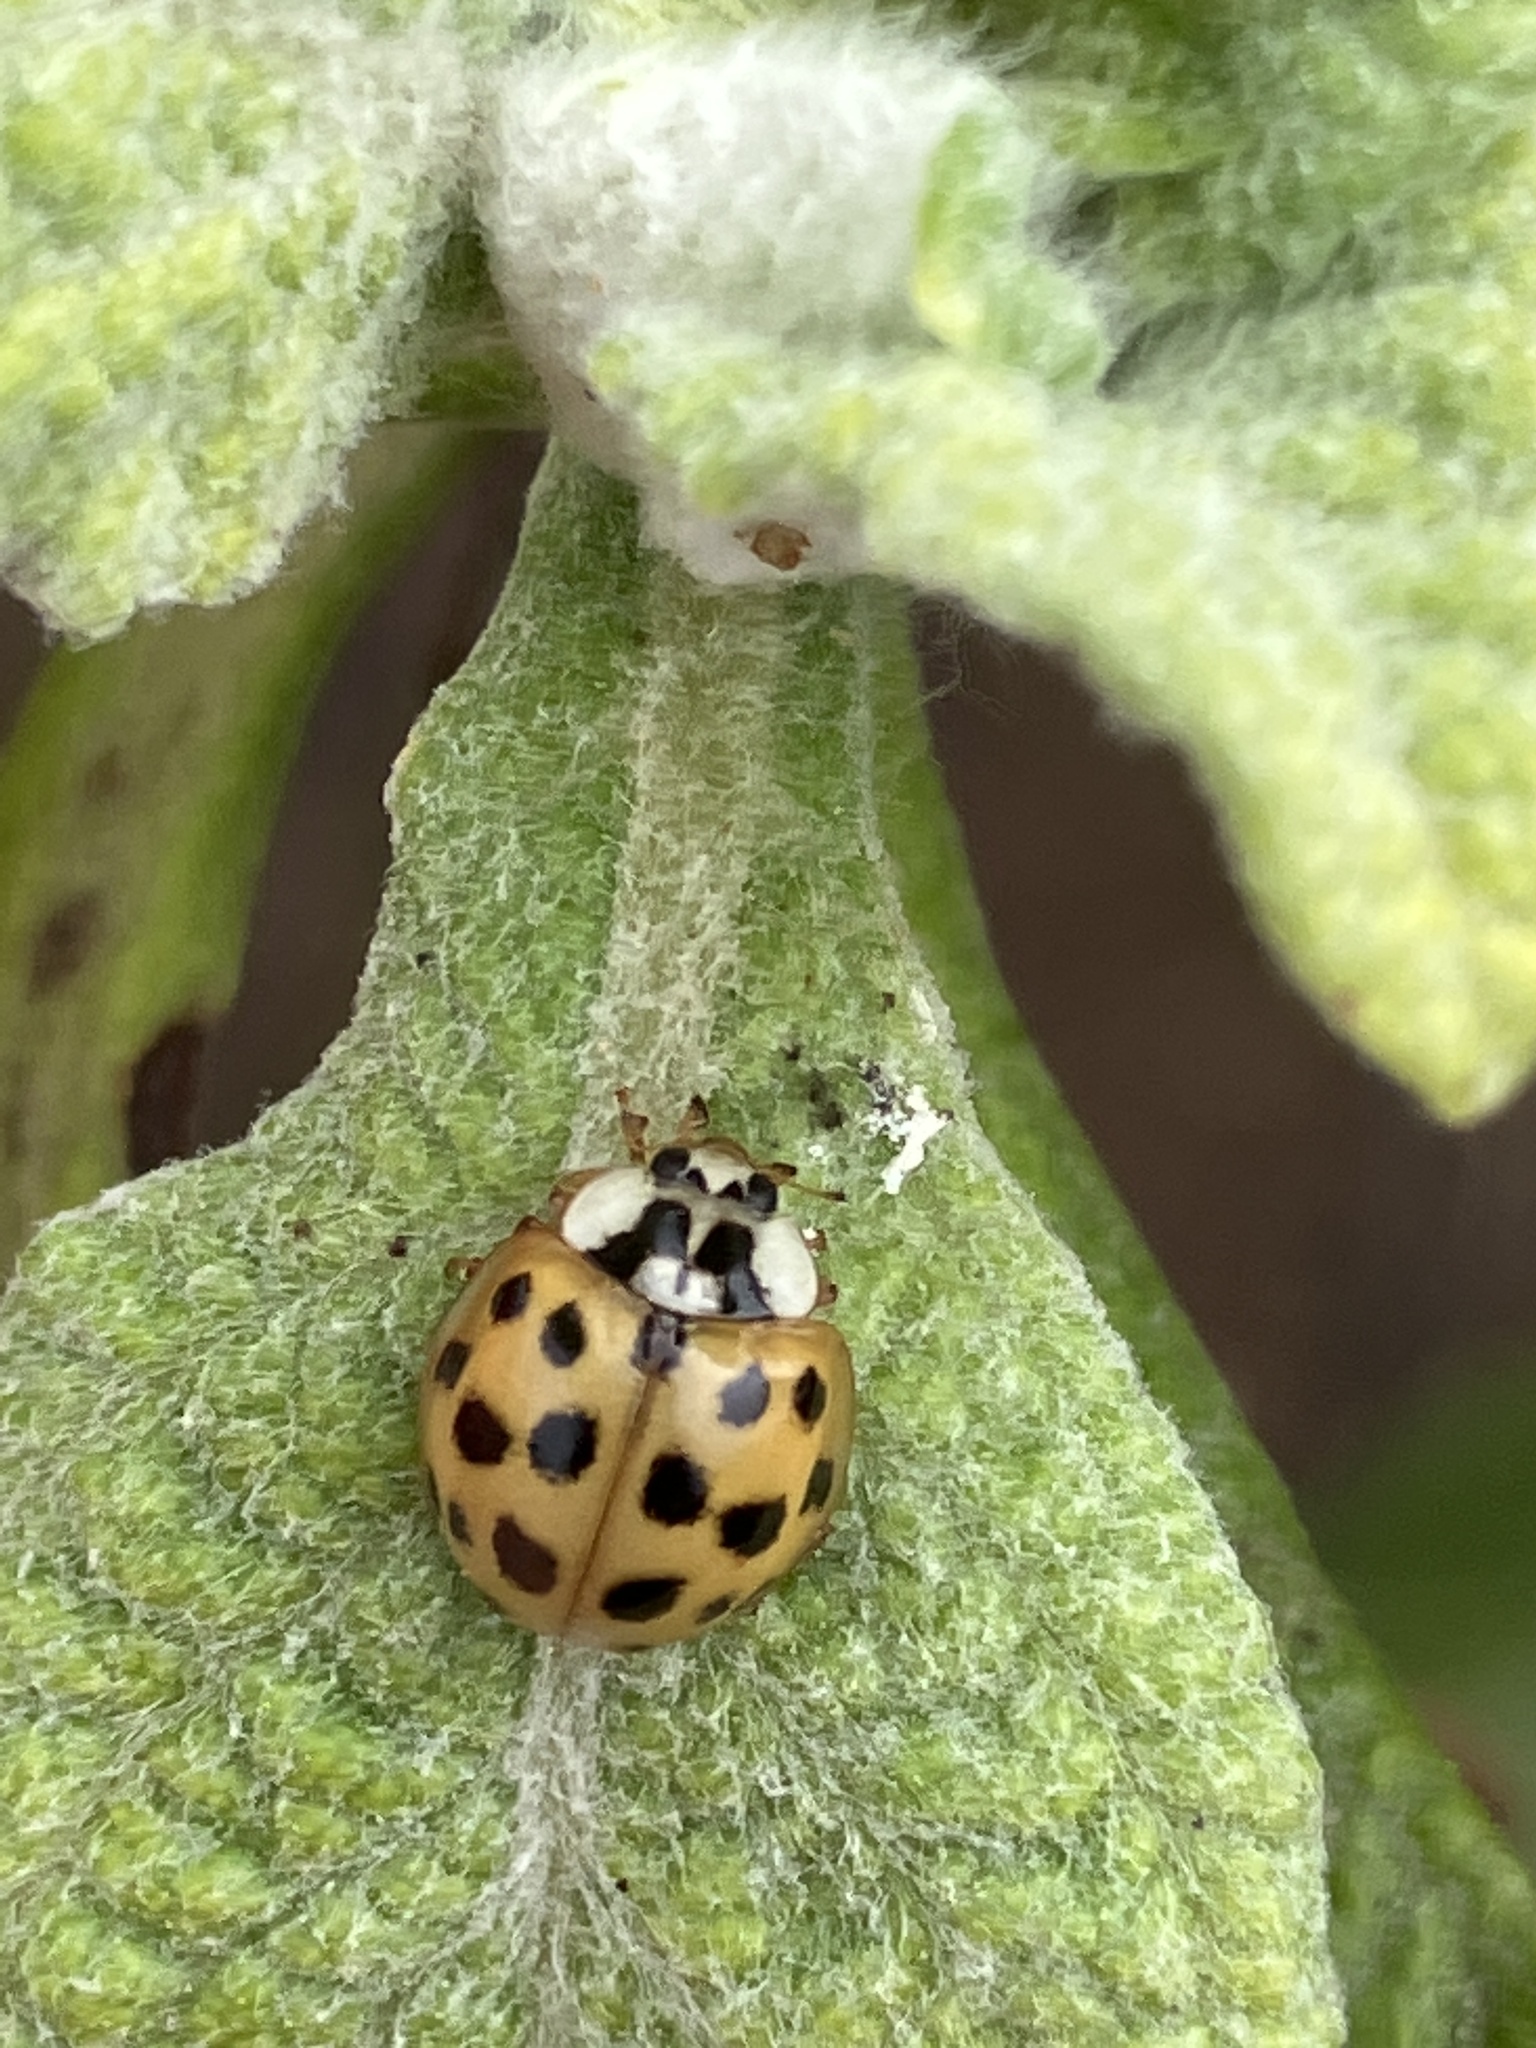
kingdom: Animalia
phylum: Arthropoda
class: Insecta
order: Coleoptera
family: Coccinellidae
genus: Harmonia
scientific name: Harmonia axyridis
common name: Harlequin ladybird
